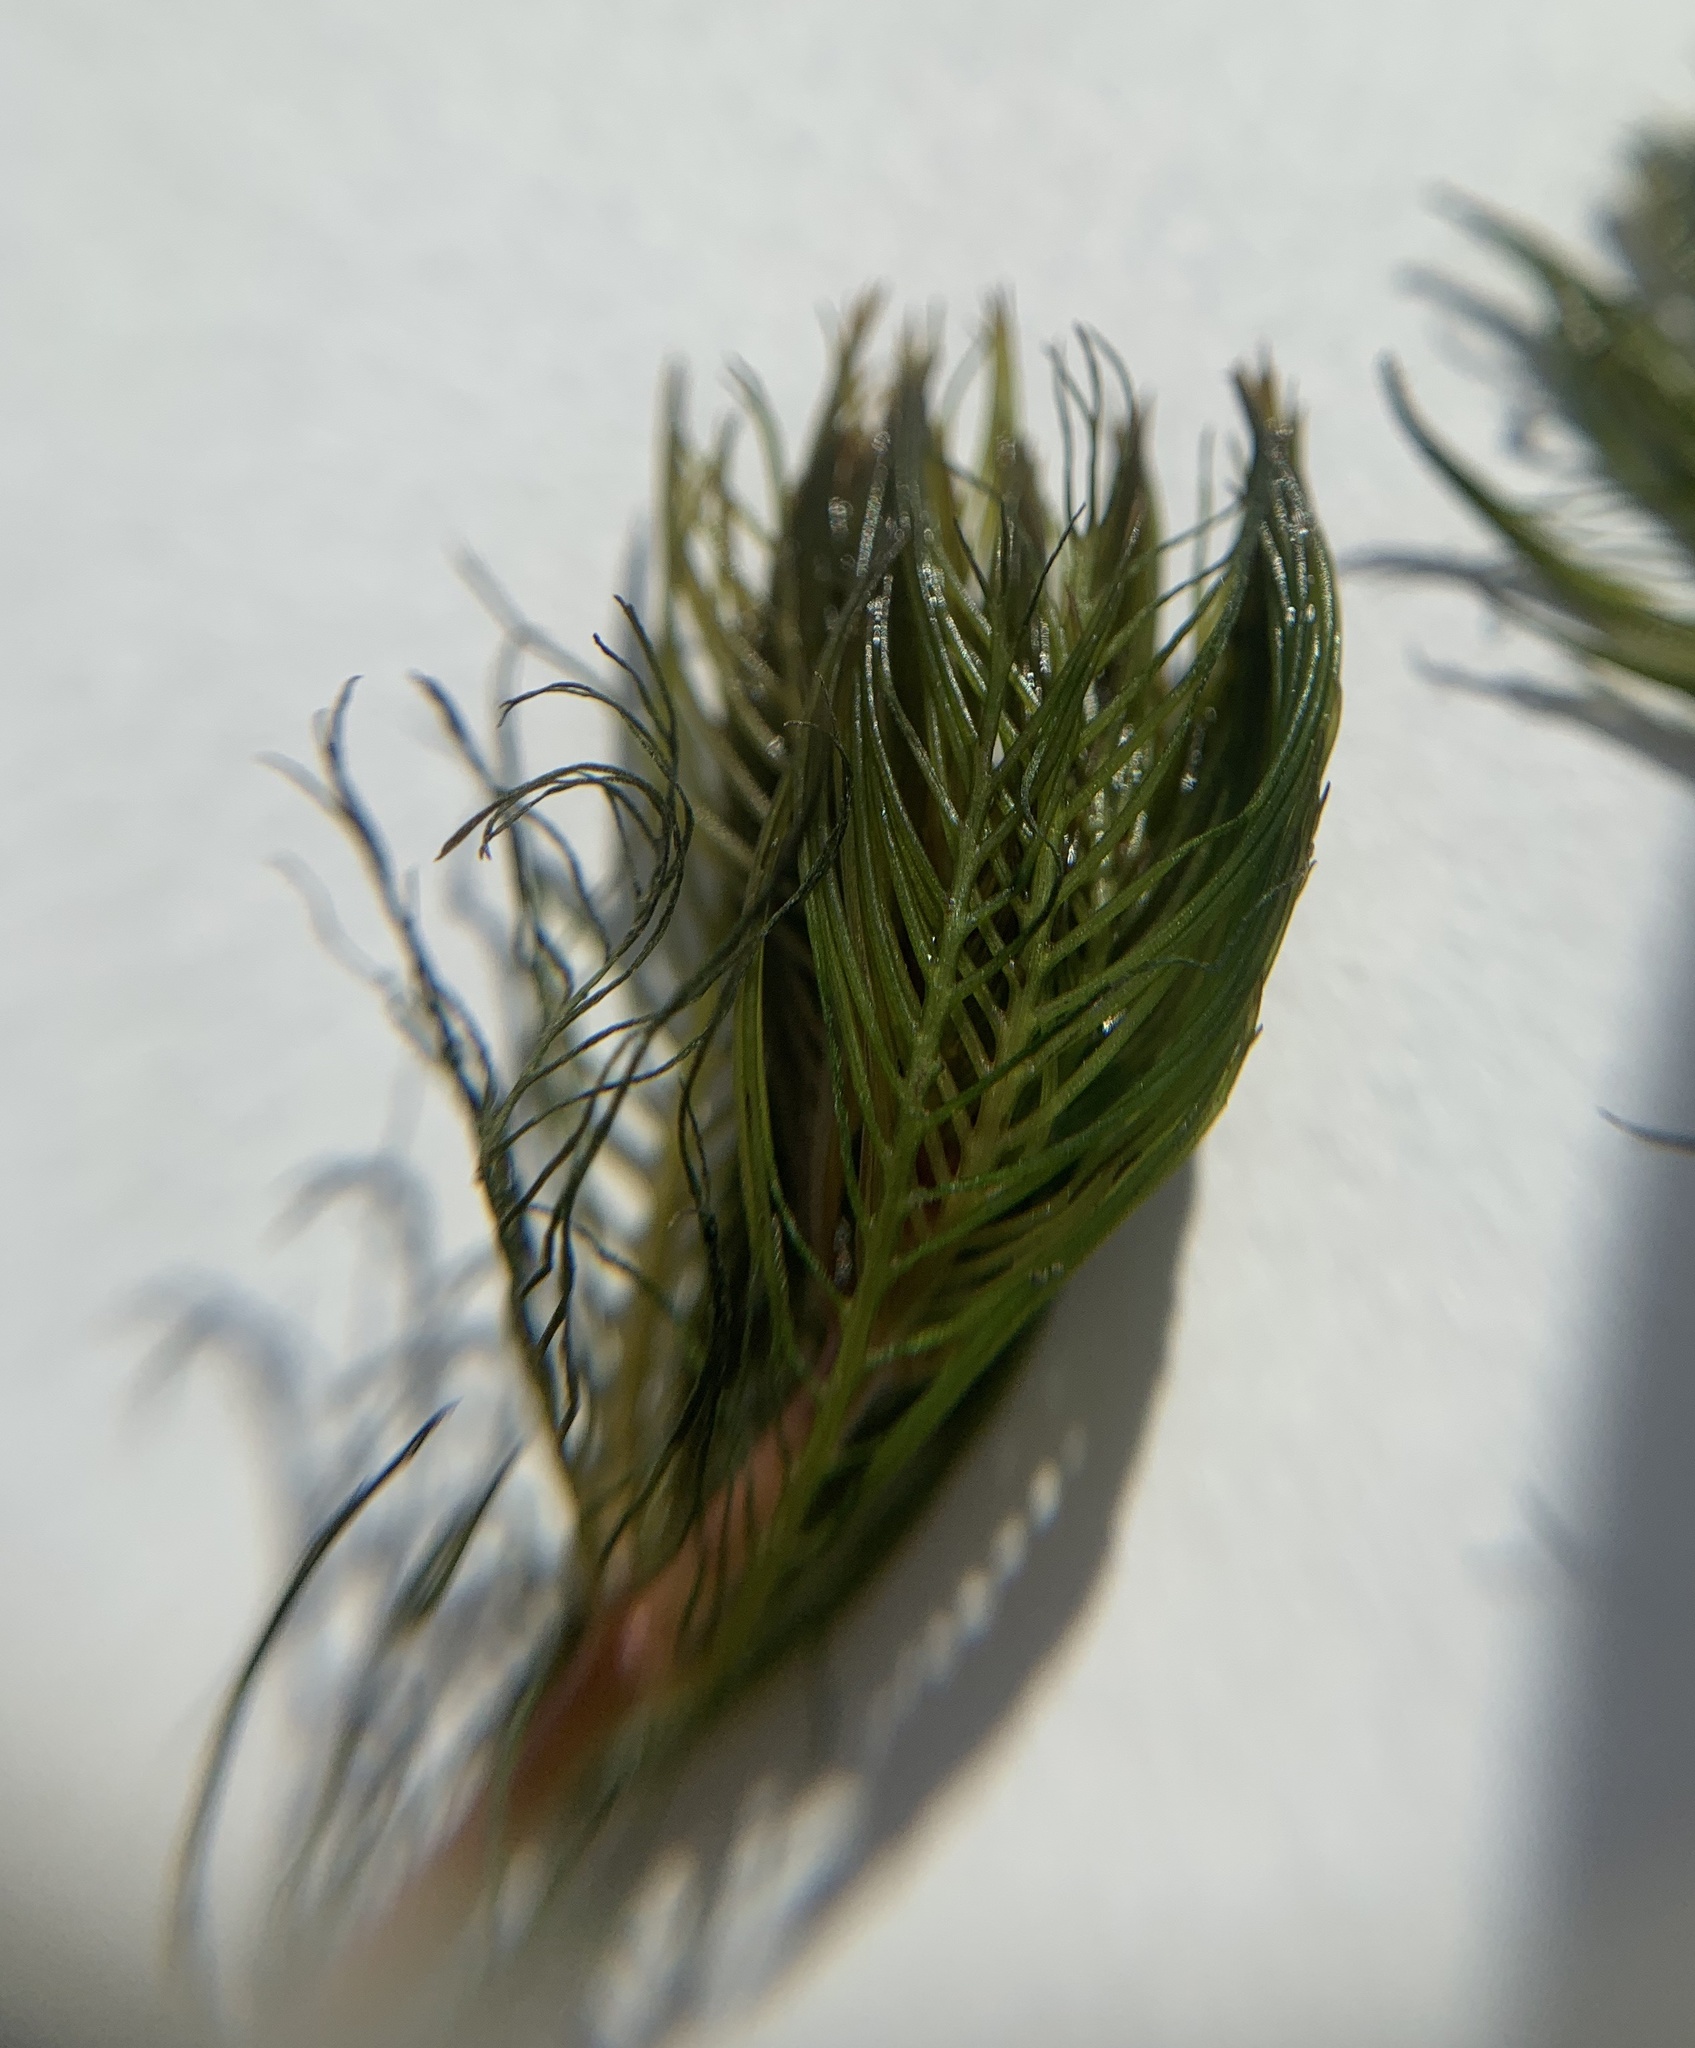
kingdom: Plantae
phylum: Tracheophyta
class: Magnoliopsida
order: Saxifragales
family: Haloragaceae
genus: Myriophyllum
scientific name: Myriophyllum spicatum
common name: Spiked water-milfoil
